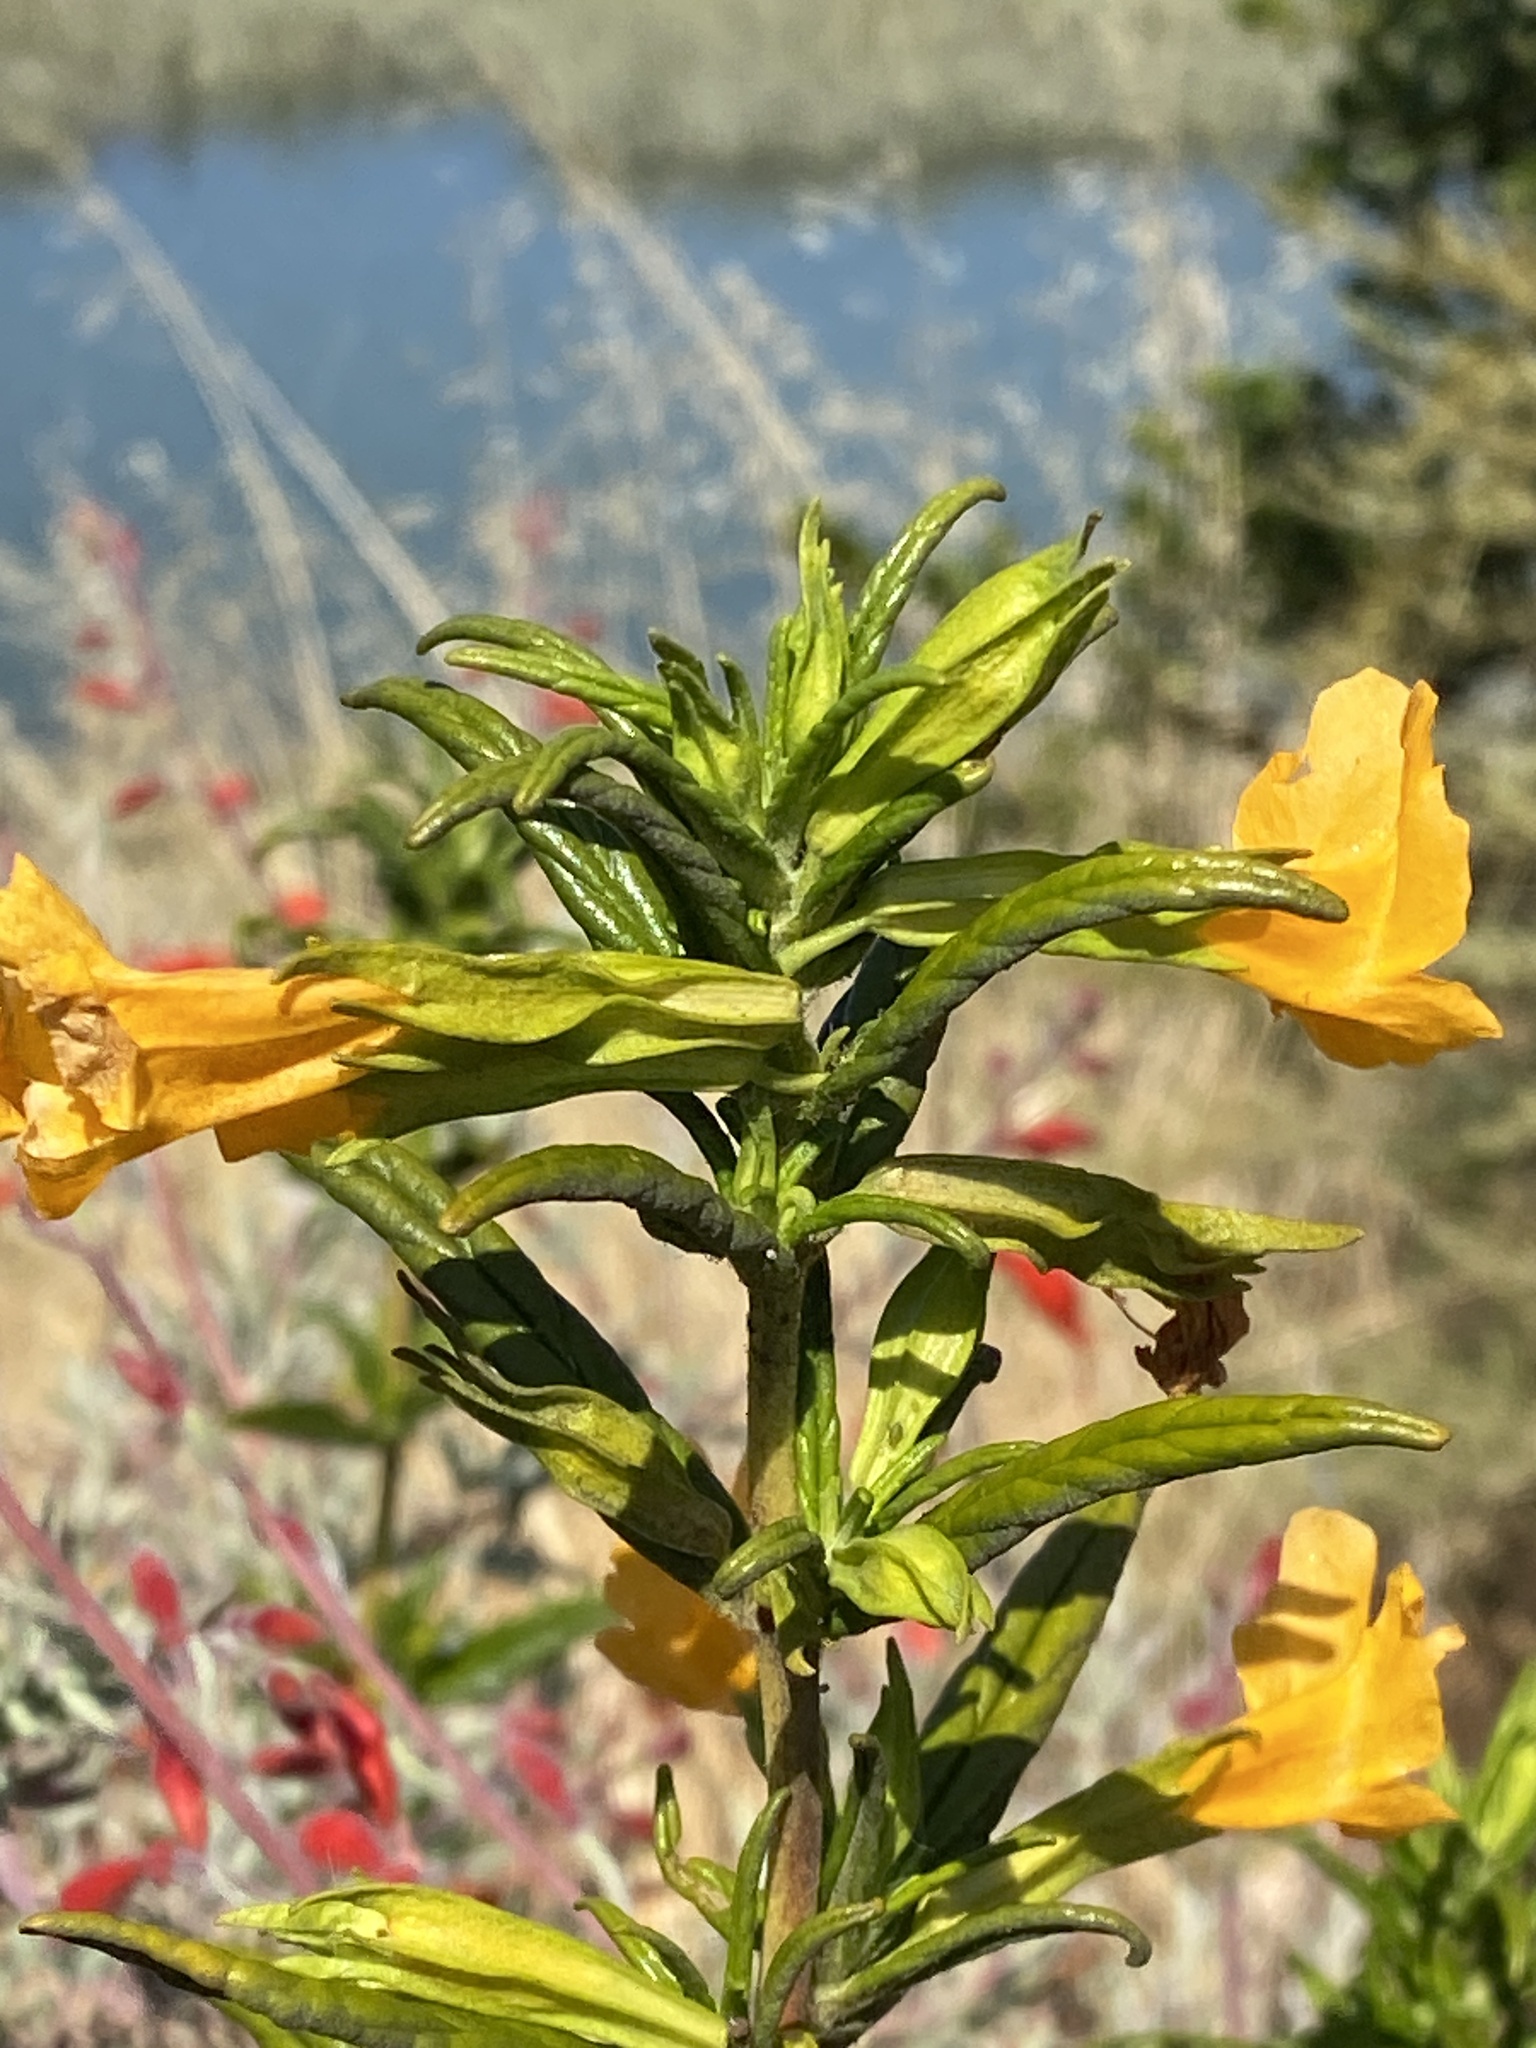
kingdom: Plantae
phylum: Tracheophyta
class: Magnoliopsida
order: Lamiales
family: Phrymaceae
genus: Diplacus
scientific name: Diplacus aurantiacus
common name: Bush monkey-flower
